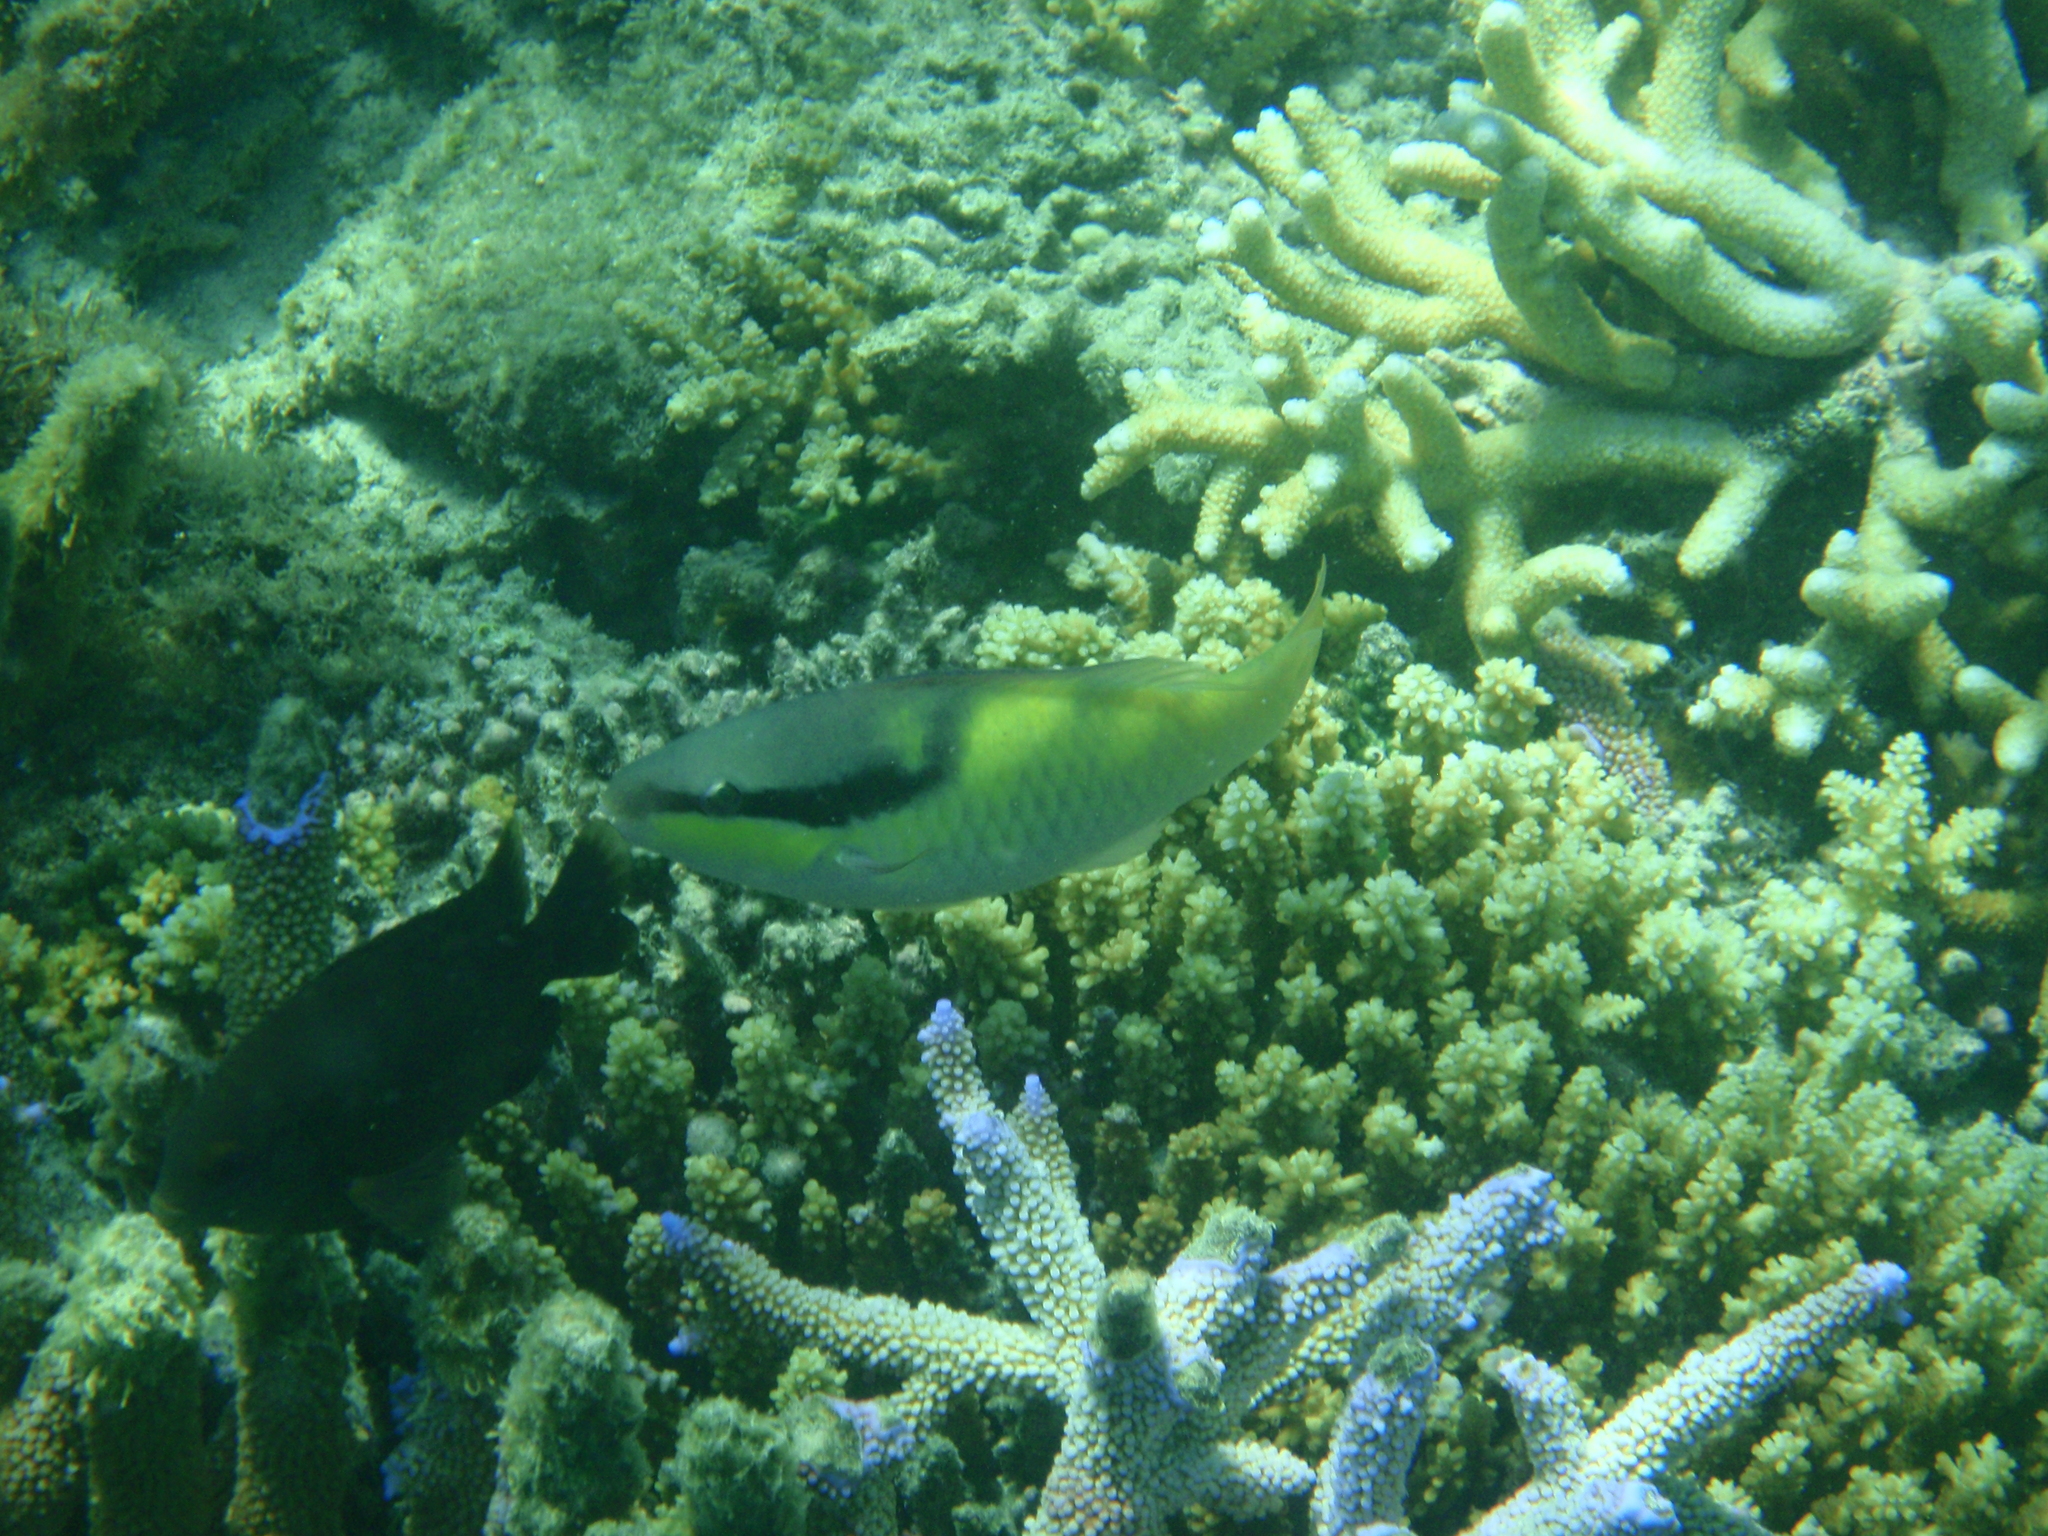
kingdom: Animalia
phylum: Chordata
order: Perciformes
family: Scaridae
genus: Scarus
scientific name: Scarus oviceps
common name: Blue parrotfish
